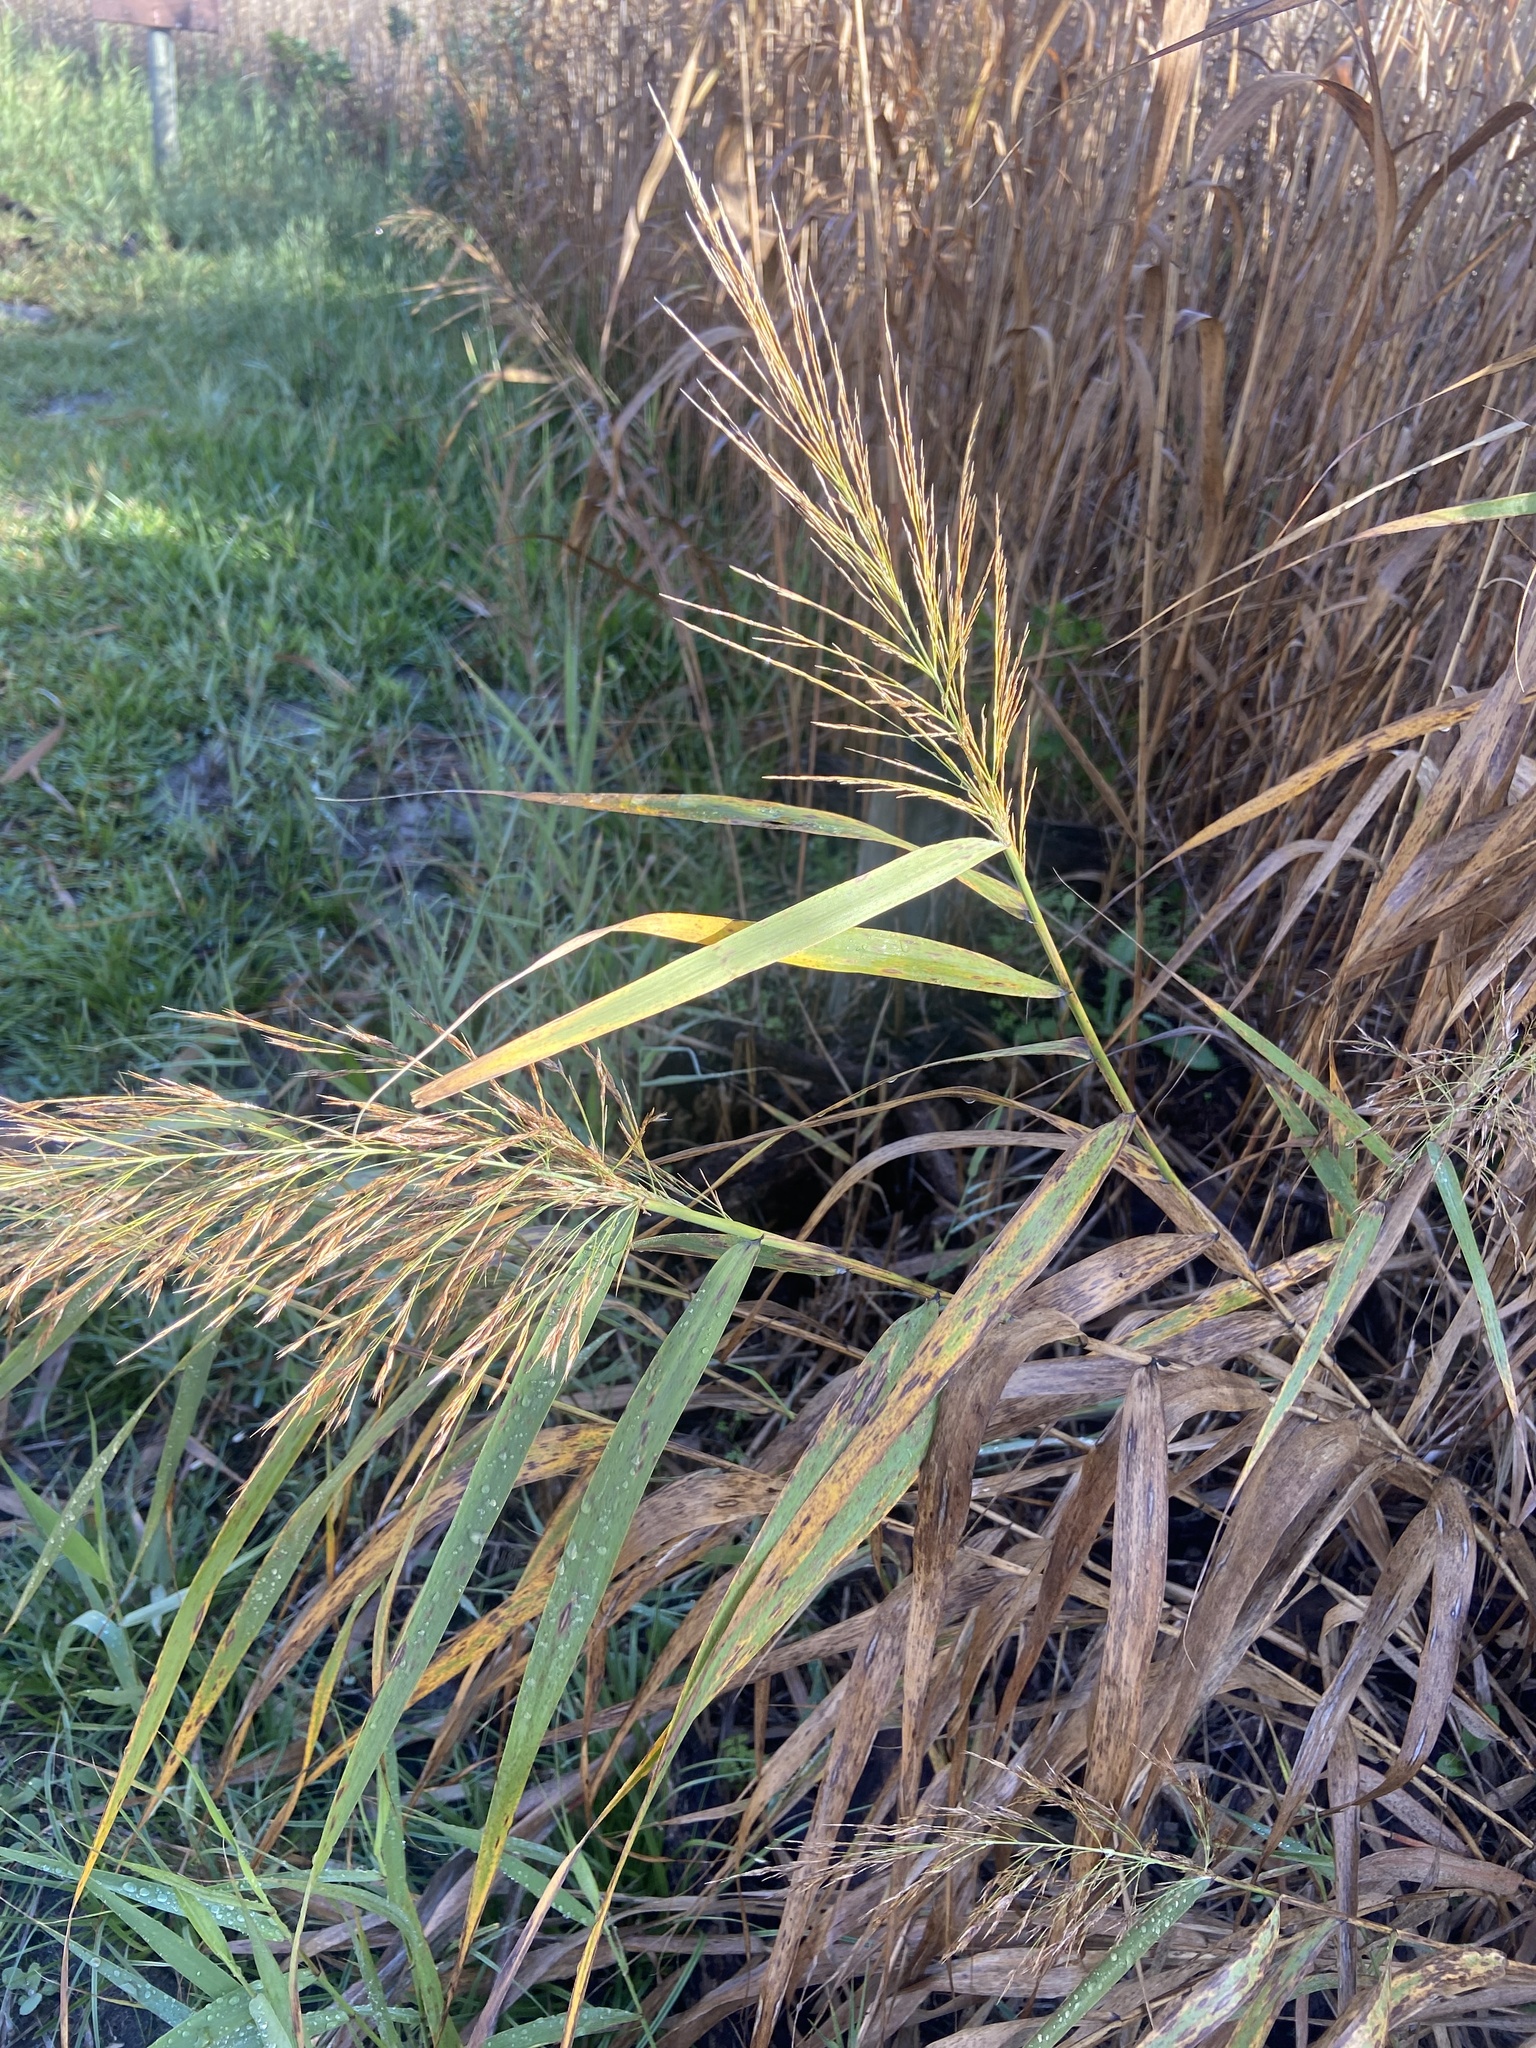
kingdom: Plantae
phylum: Tracheophyta
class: Liliopsida
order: Poales
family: Poaceae
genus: Phragmites
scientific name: Phragmites australis
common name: Common reed
